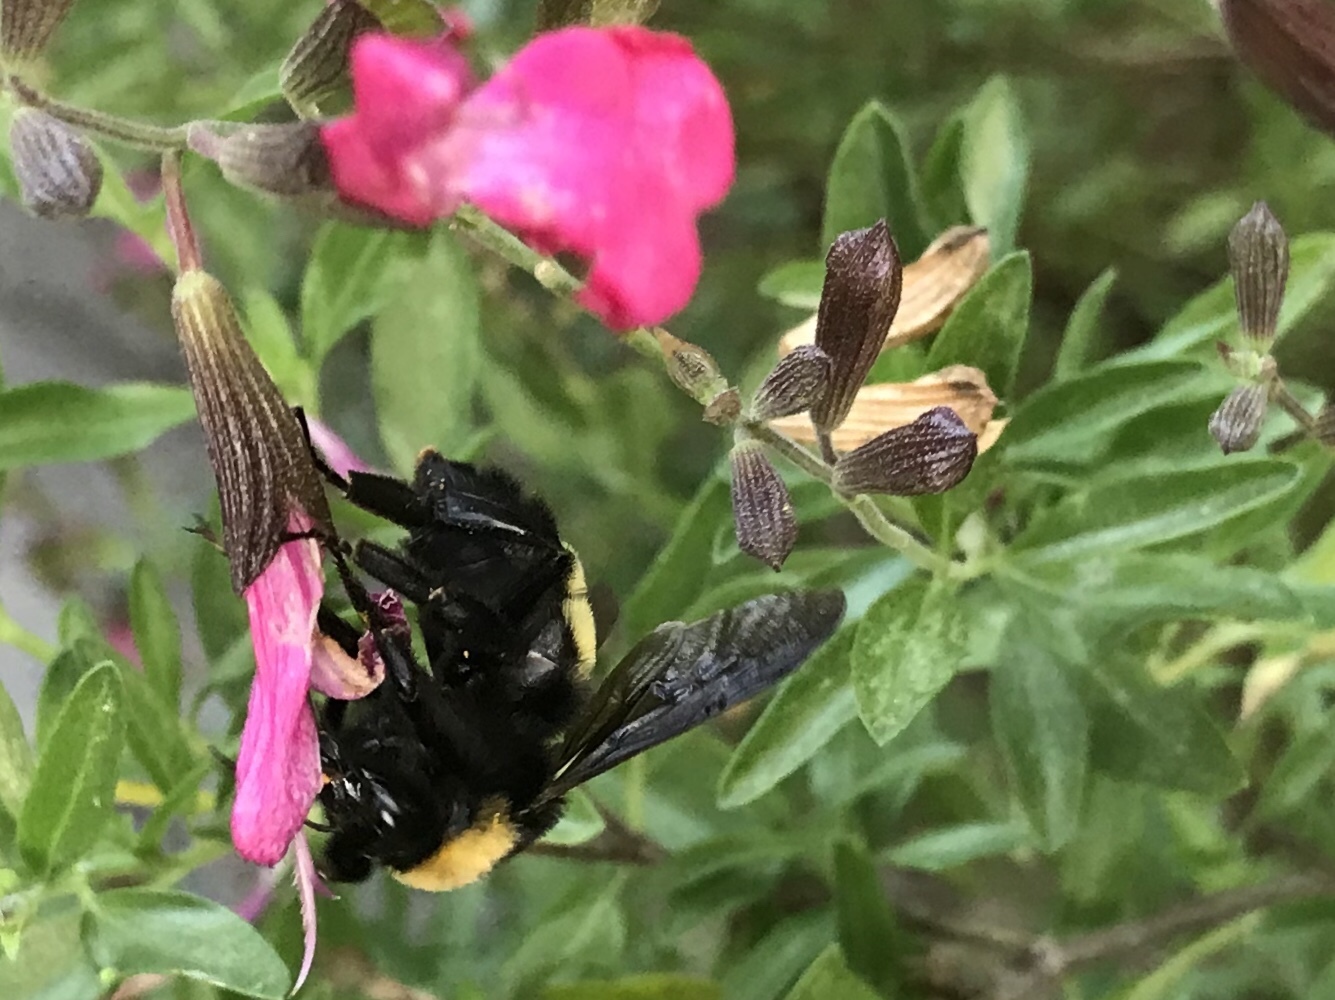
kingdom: Animalia
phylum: Arthropoda
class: Insecta
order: Hymenoptera
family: Apidae
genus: Bombus
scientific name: Bombus pensylvanicus
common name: Bumble bee
